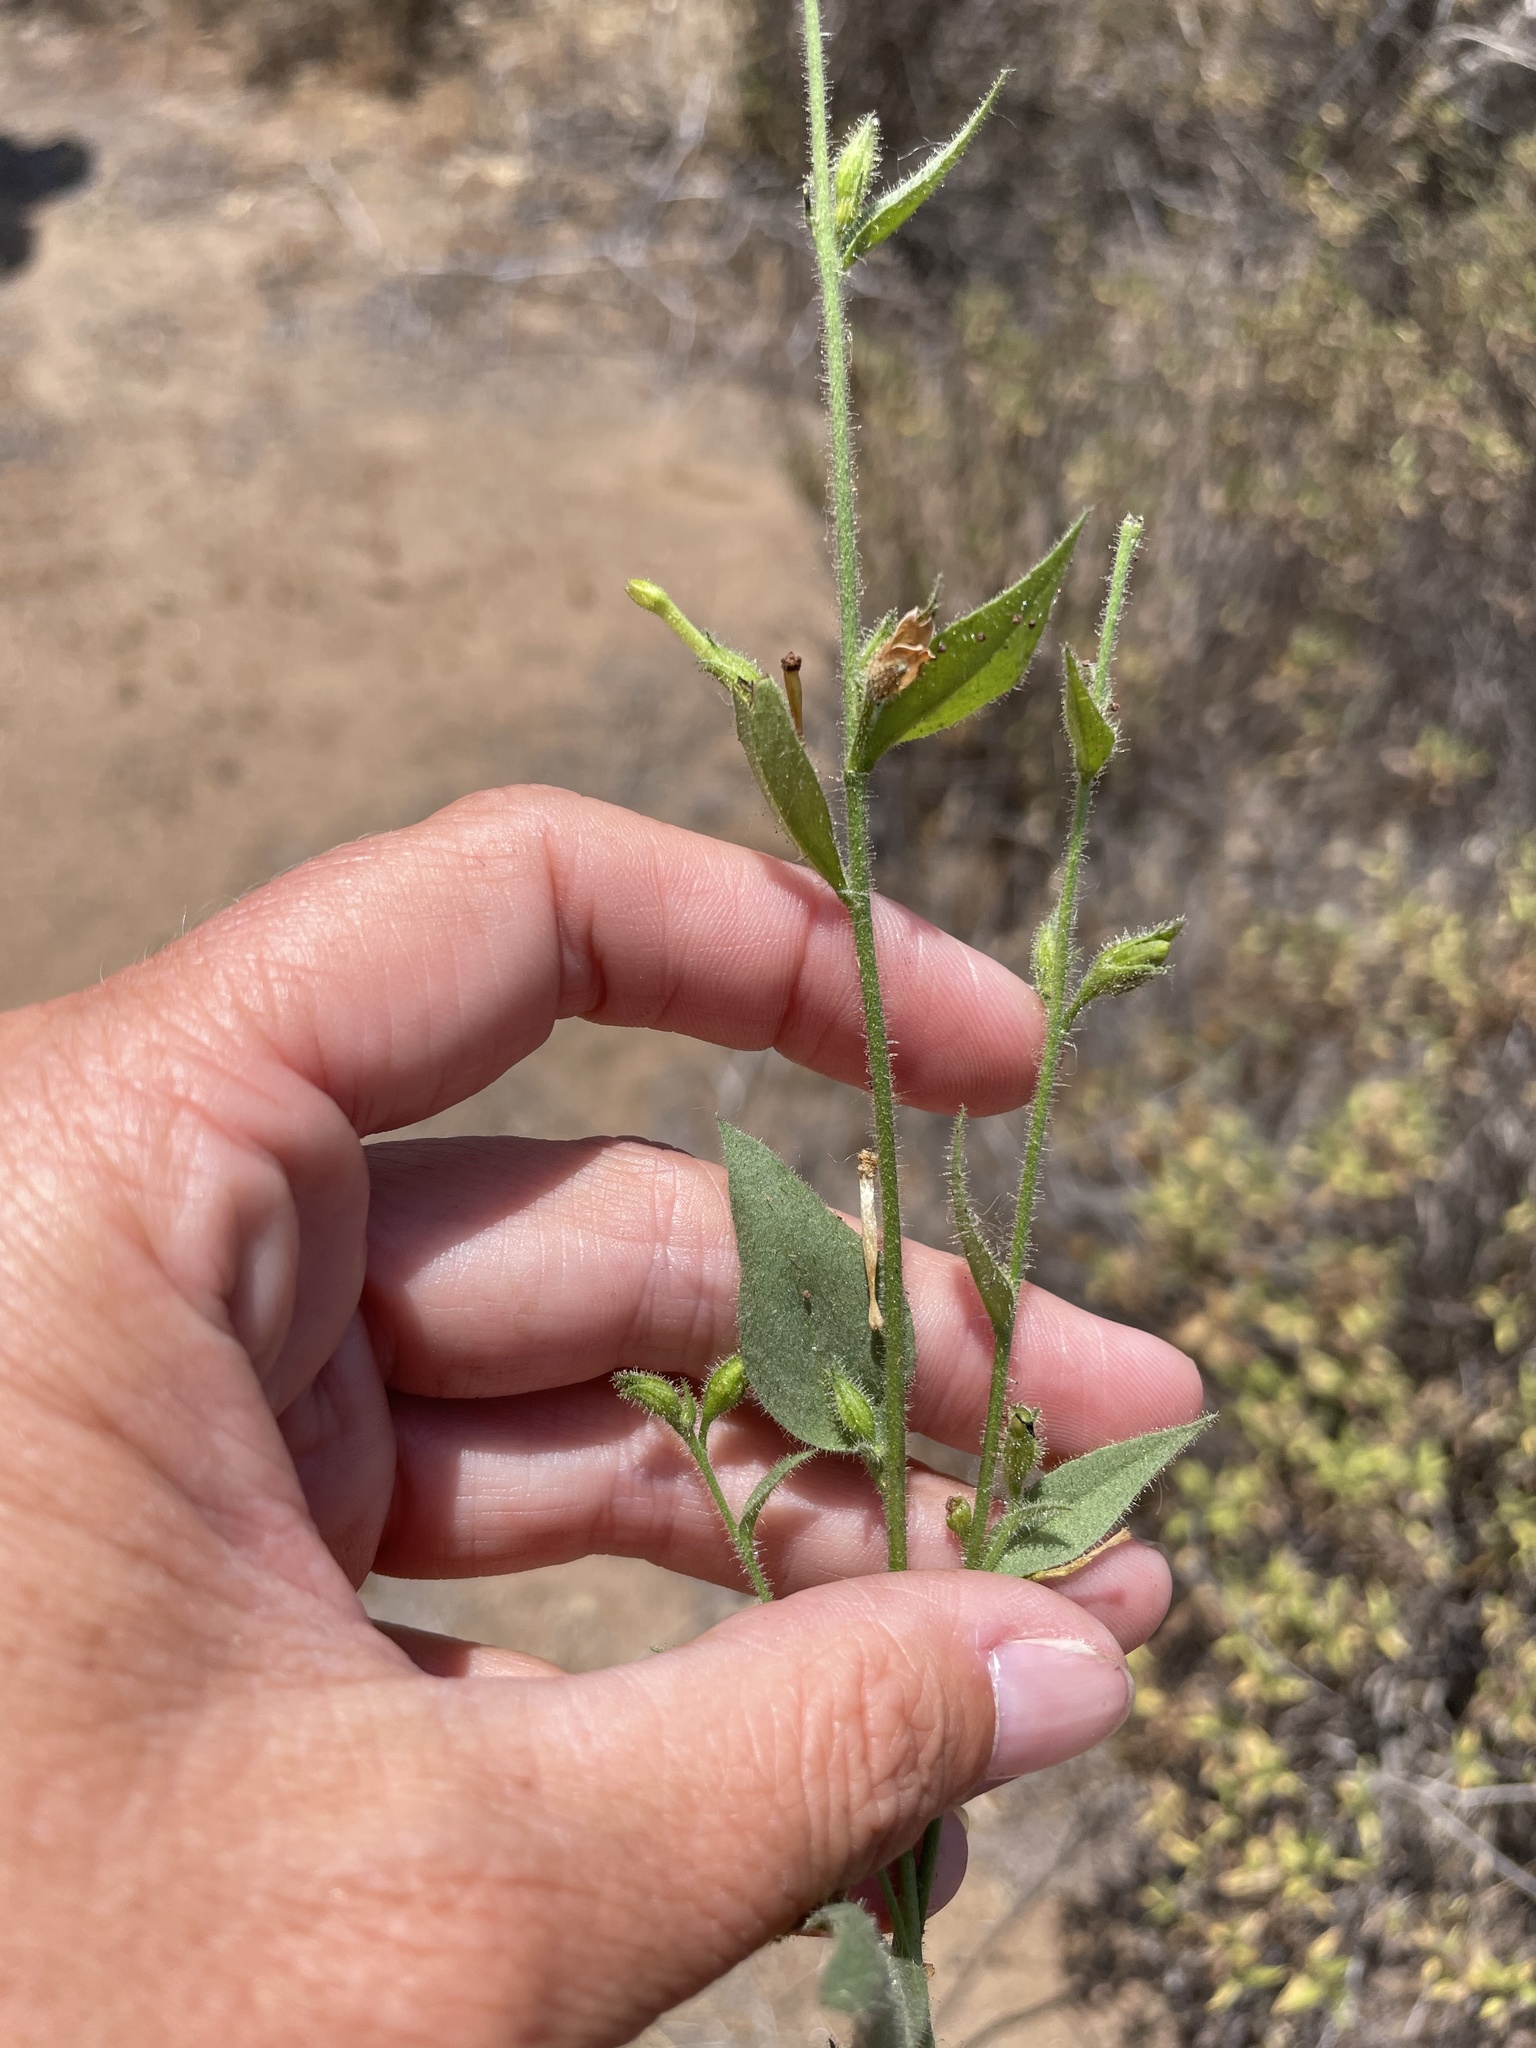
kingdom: Plantae
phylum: Tracheophyta
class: Magnoliopsida
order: Solanales
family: Solanaceae
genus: Nicotiana
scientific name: Nicotiana obtusifolia
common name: Desert tobacco
